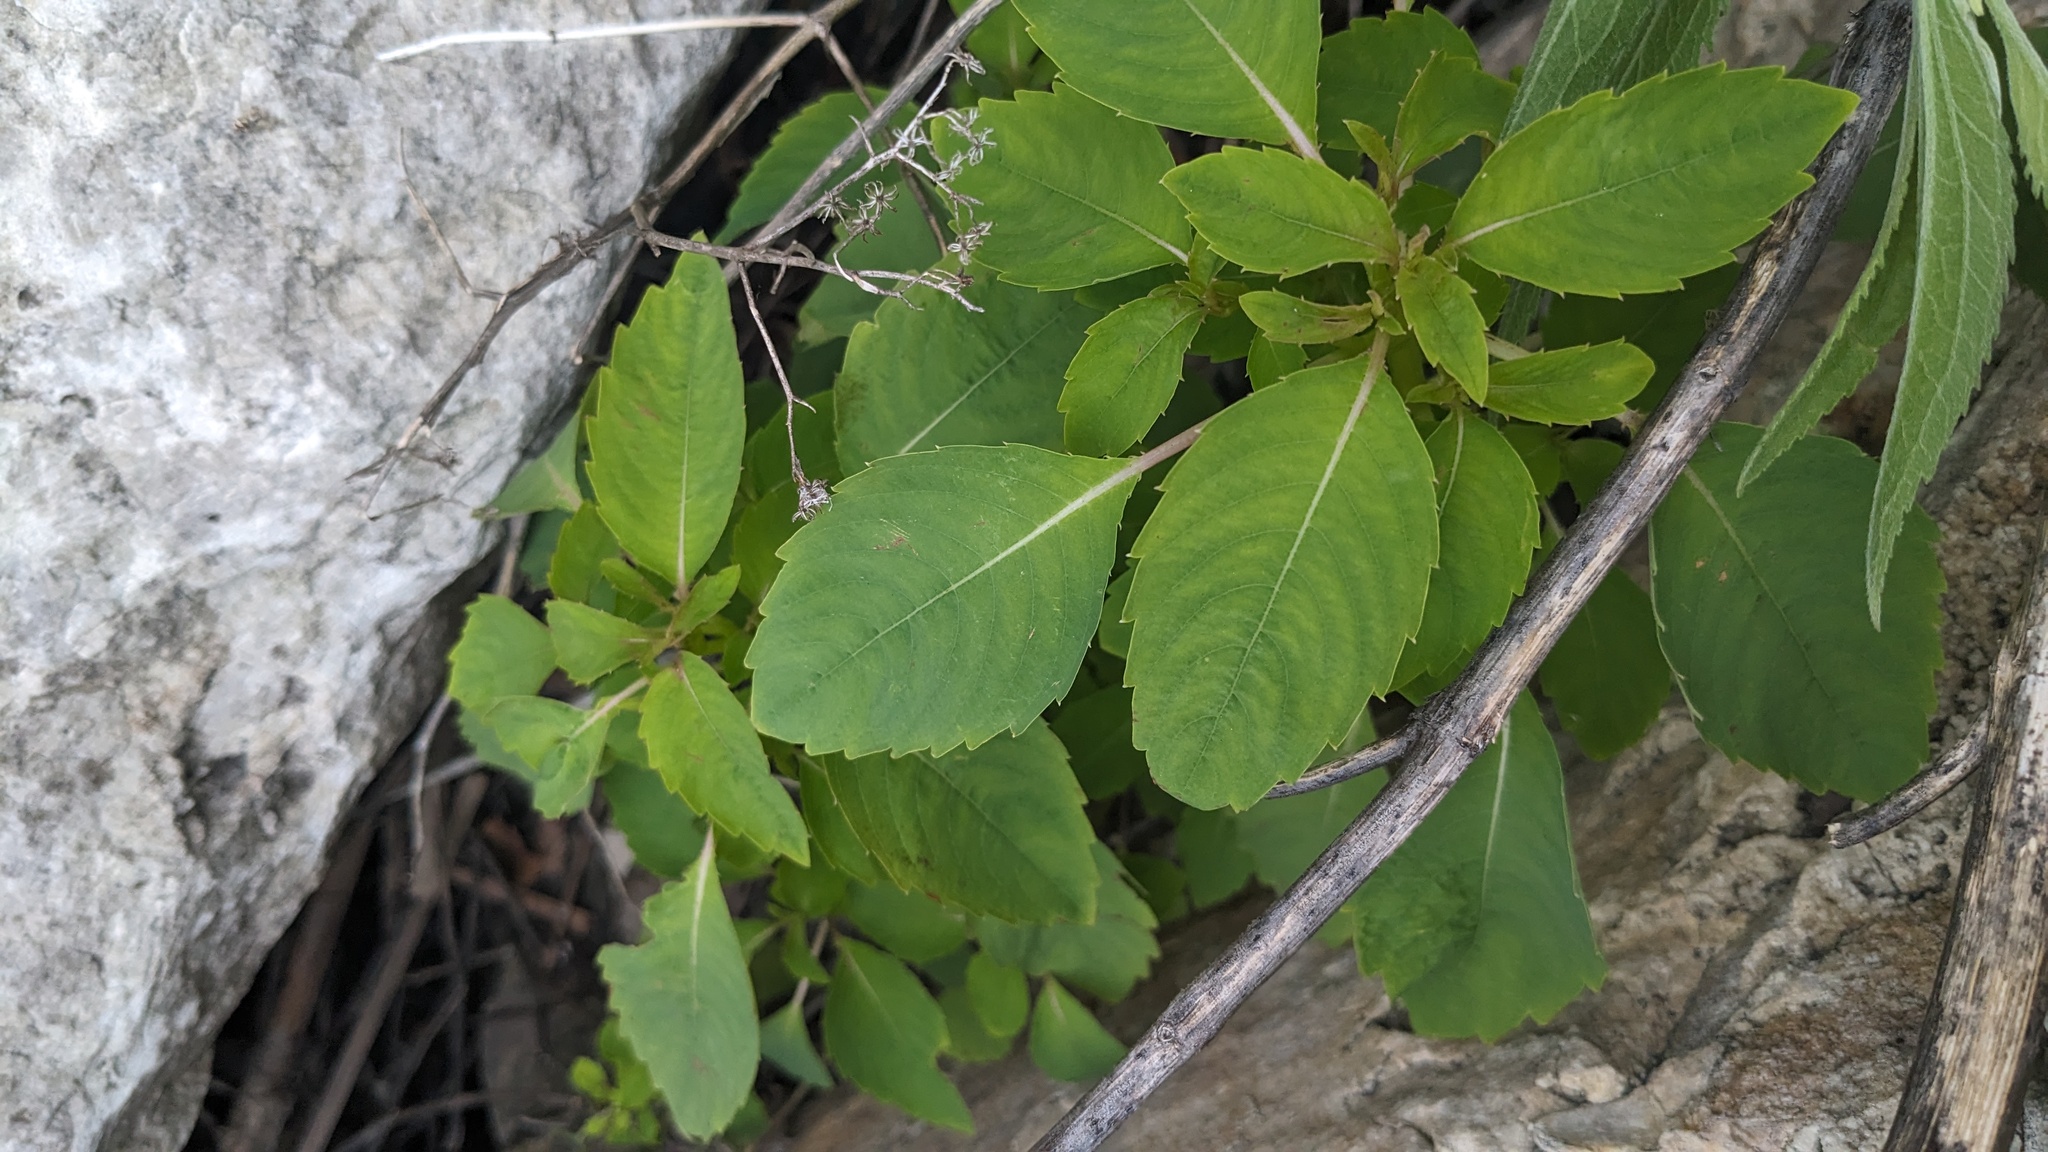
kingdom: Plantae
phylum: Tracheophyta
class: Magnoliopsida
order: Ericales
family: Balsaminaceae
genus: Impatiens
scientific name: Impatiens capensis
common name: Orange balsam
